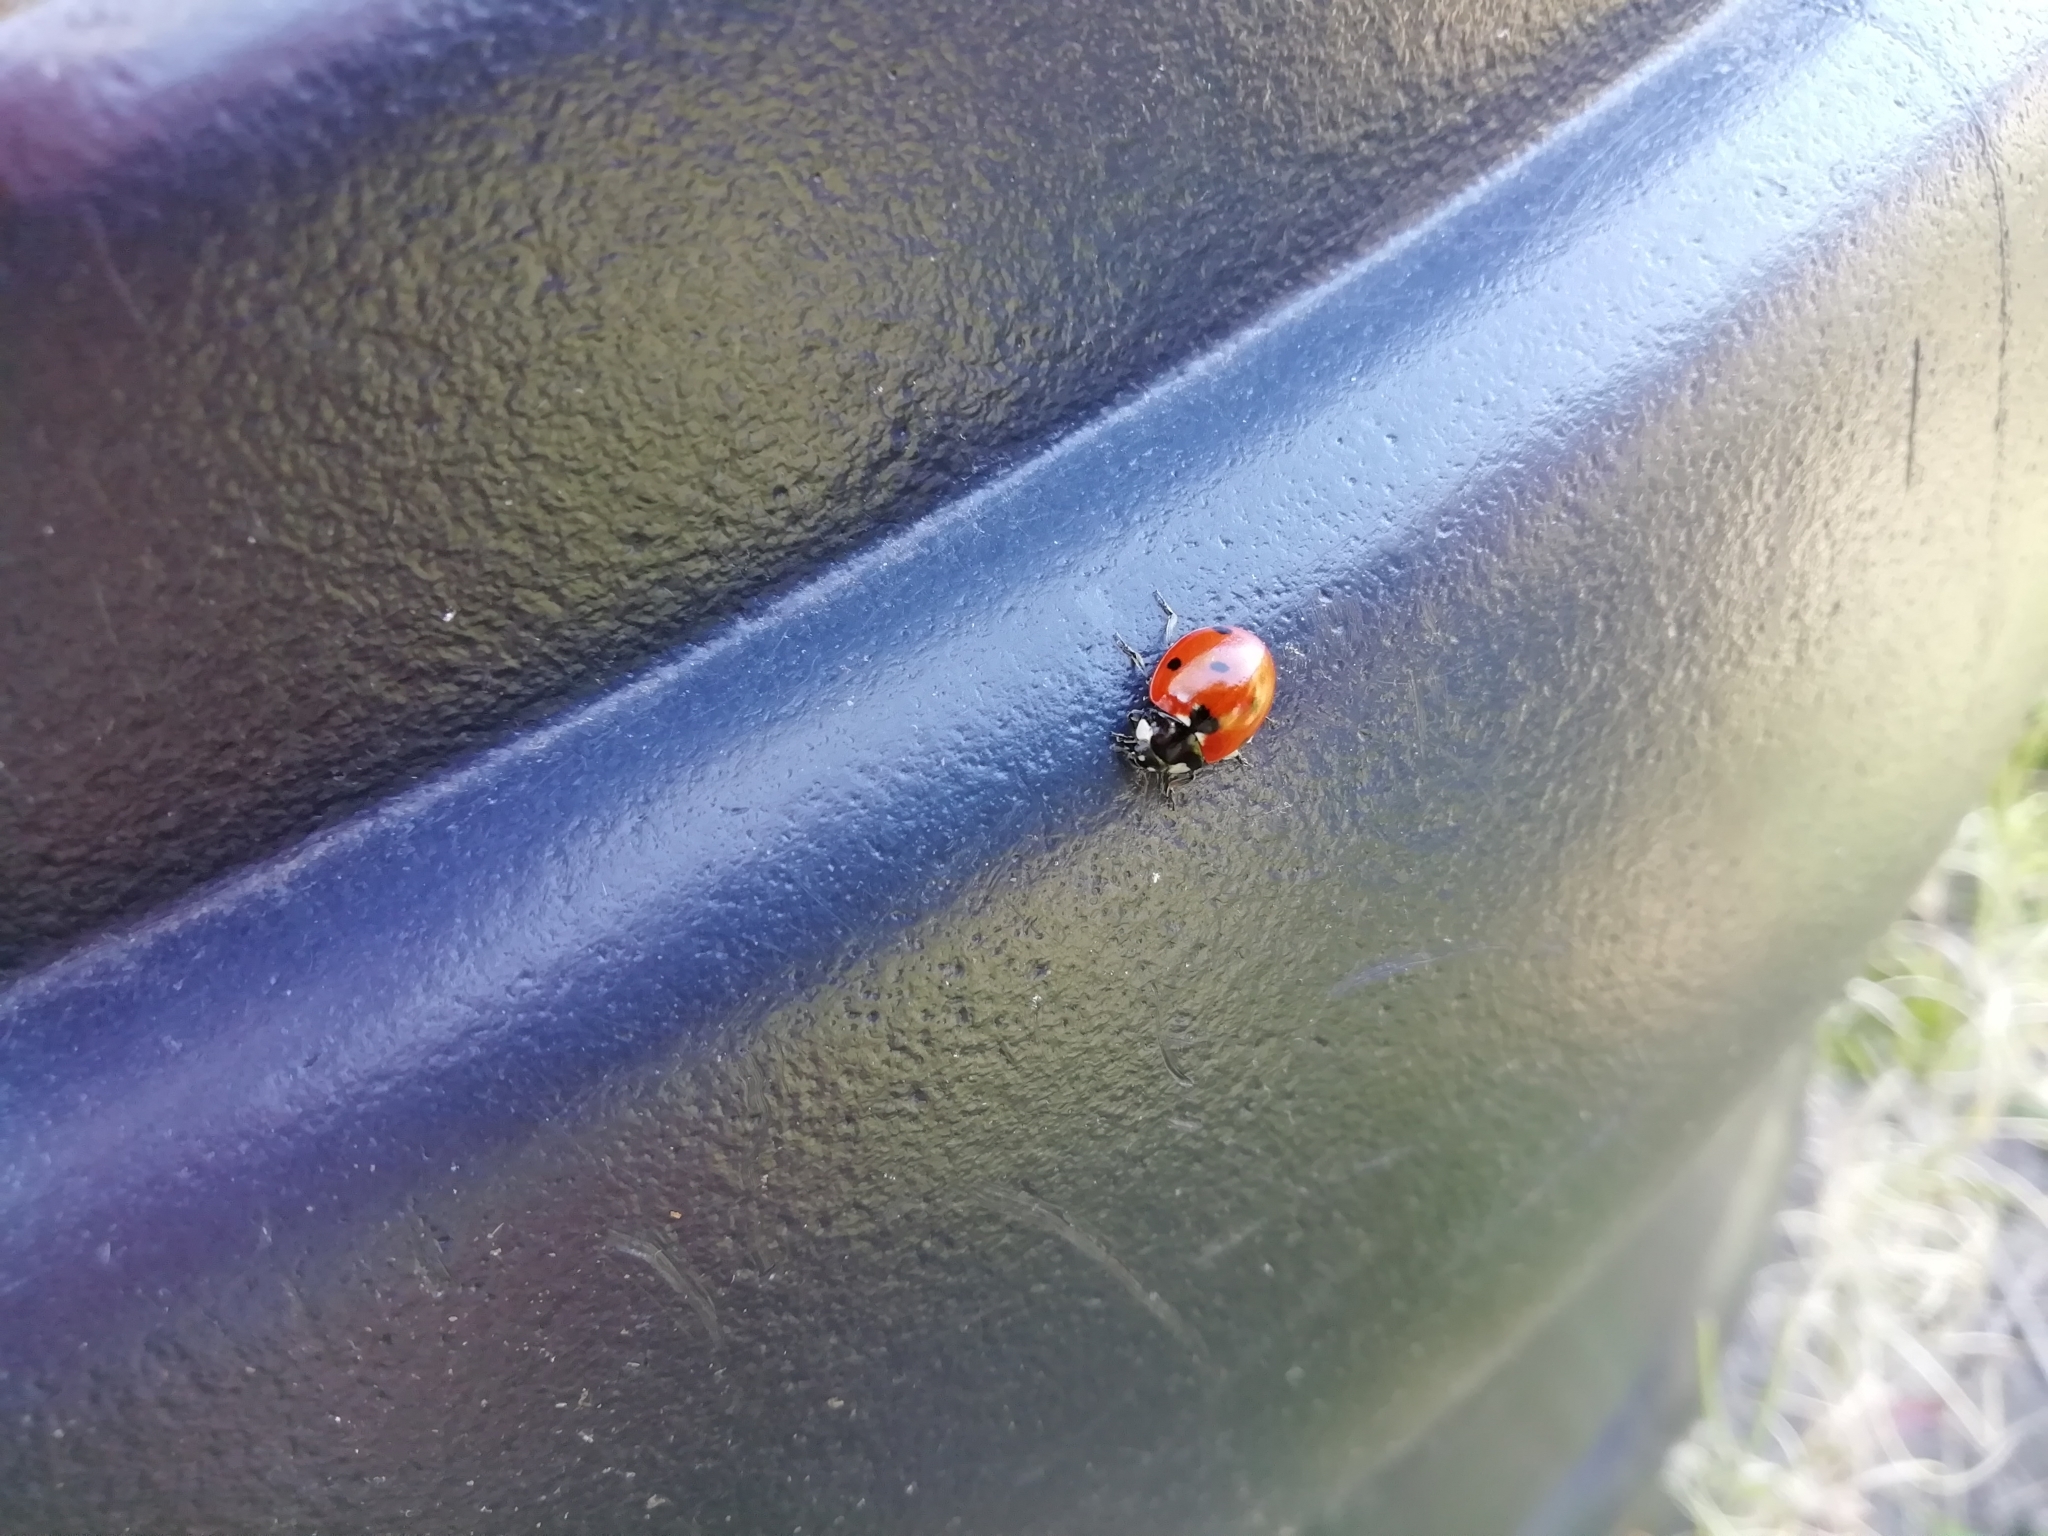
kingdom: Animalia
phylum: Arthropoda
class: Insecta
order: Coleoptera
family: Coccinellidae
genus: Coccinella
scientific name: Coccinella septempunctata
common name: Sevenspotted lady beetle
